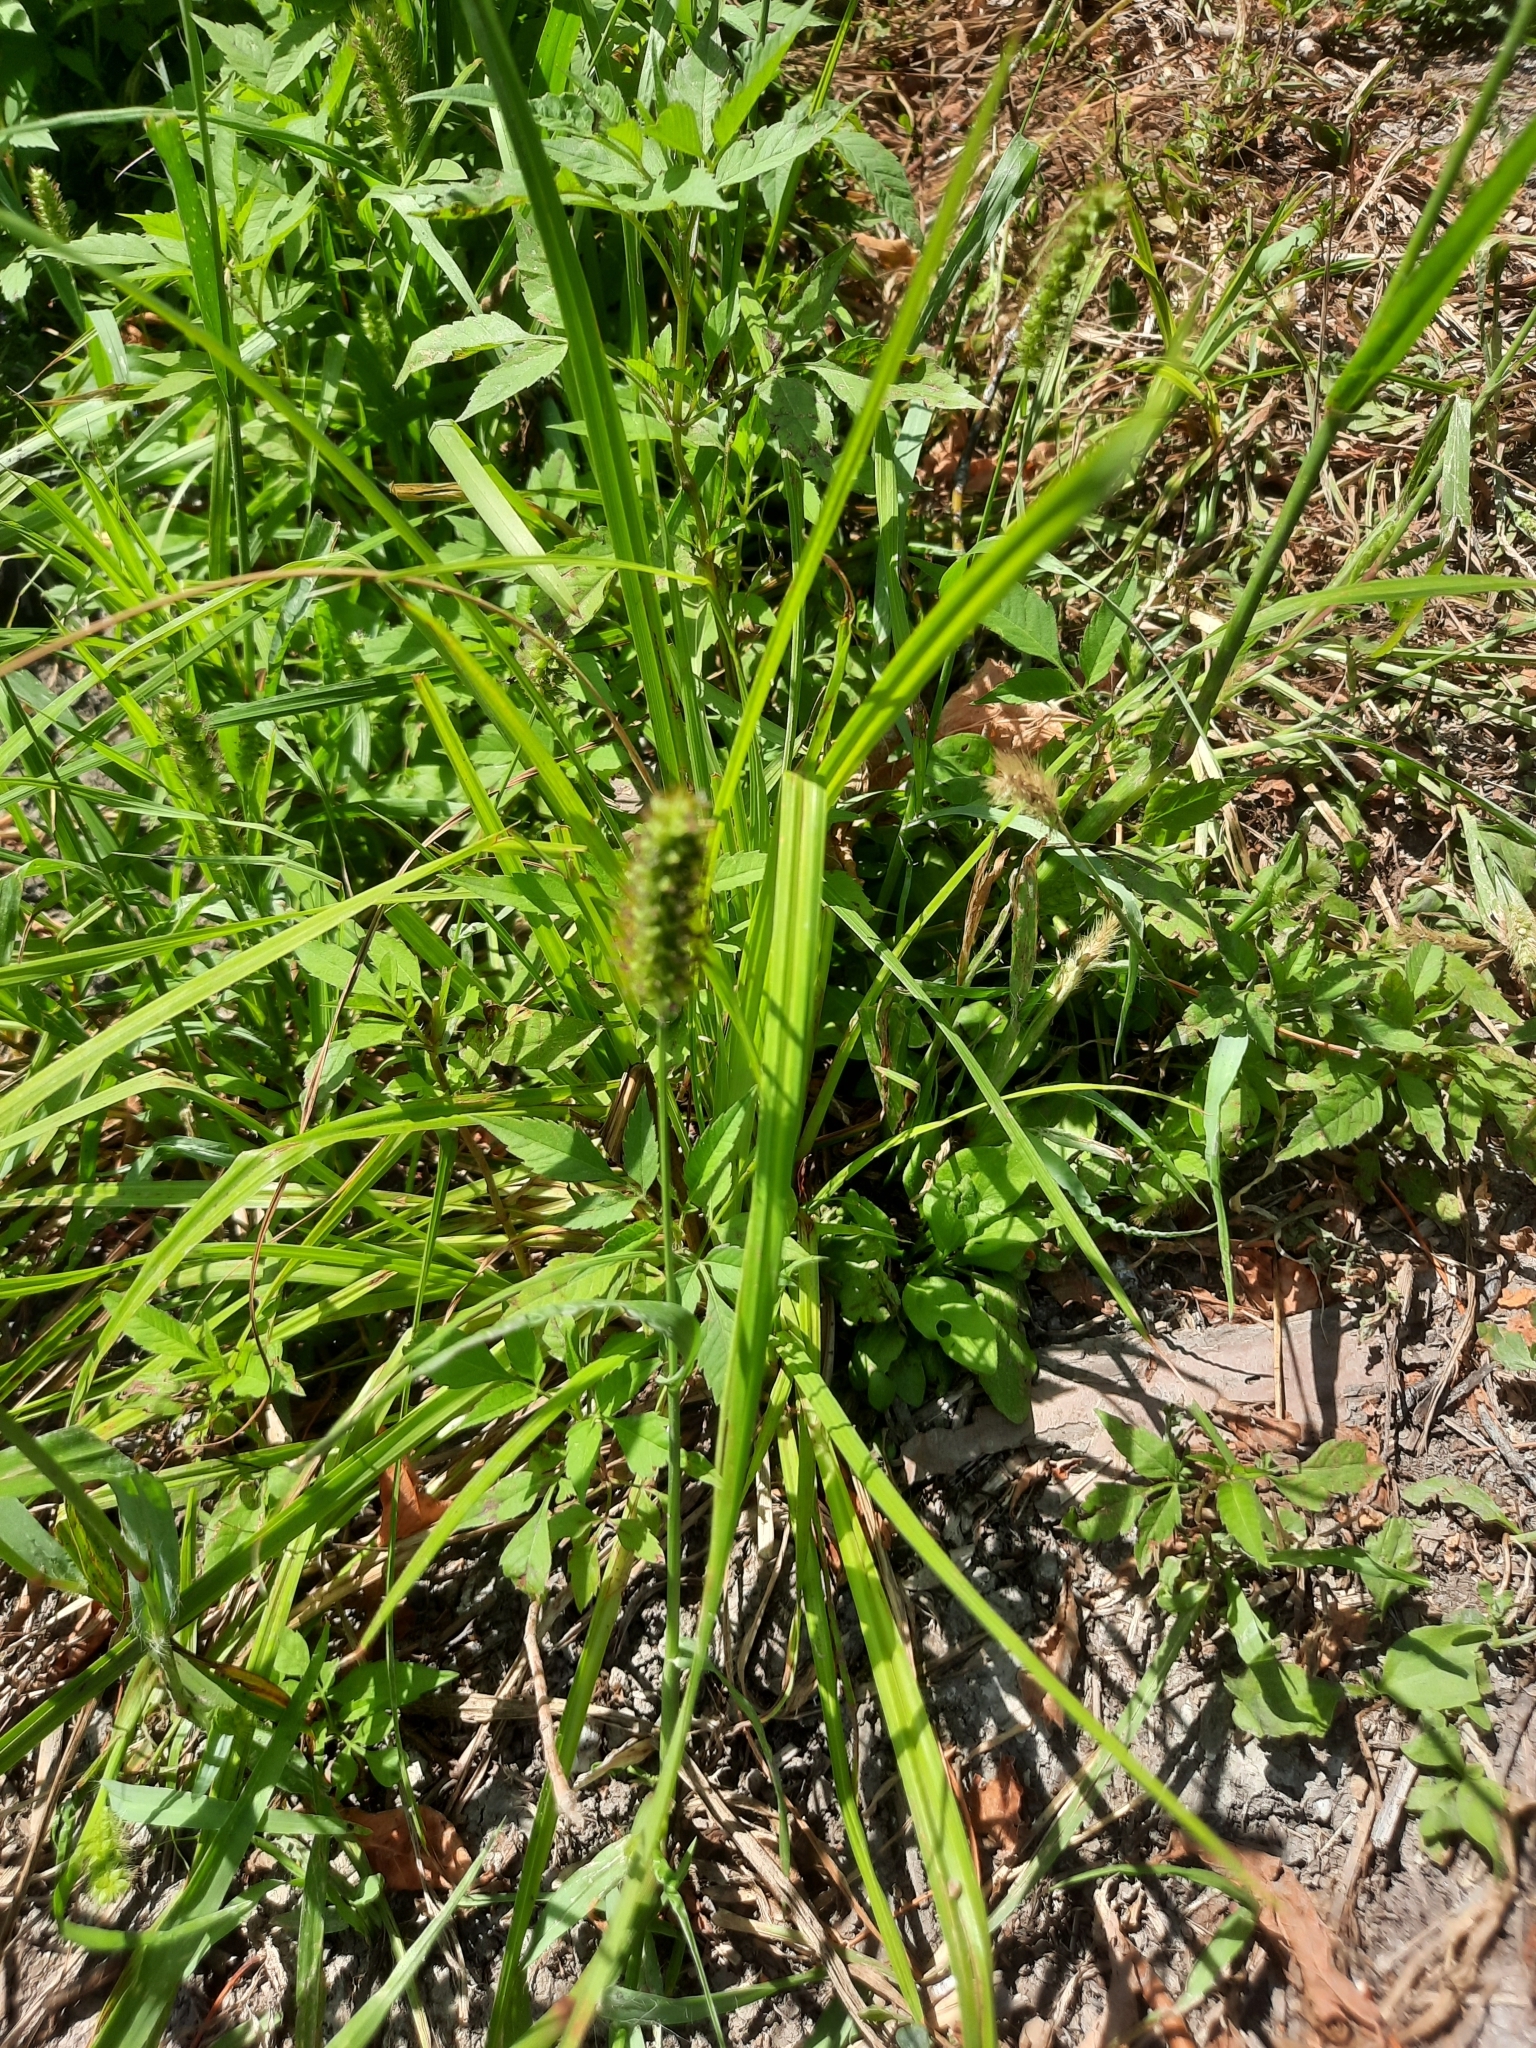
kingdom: Plantae
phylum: Tracheophyta
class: Liliopsida
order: Poales
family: Poaceae
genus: Setaria
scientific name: Setaria pumila
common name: Yellow bristle-grass
